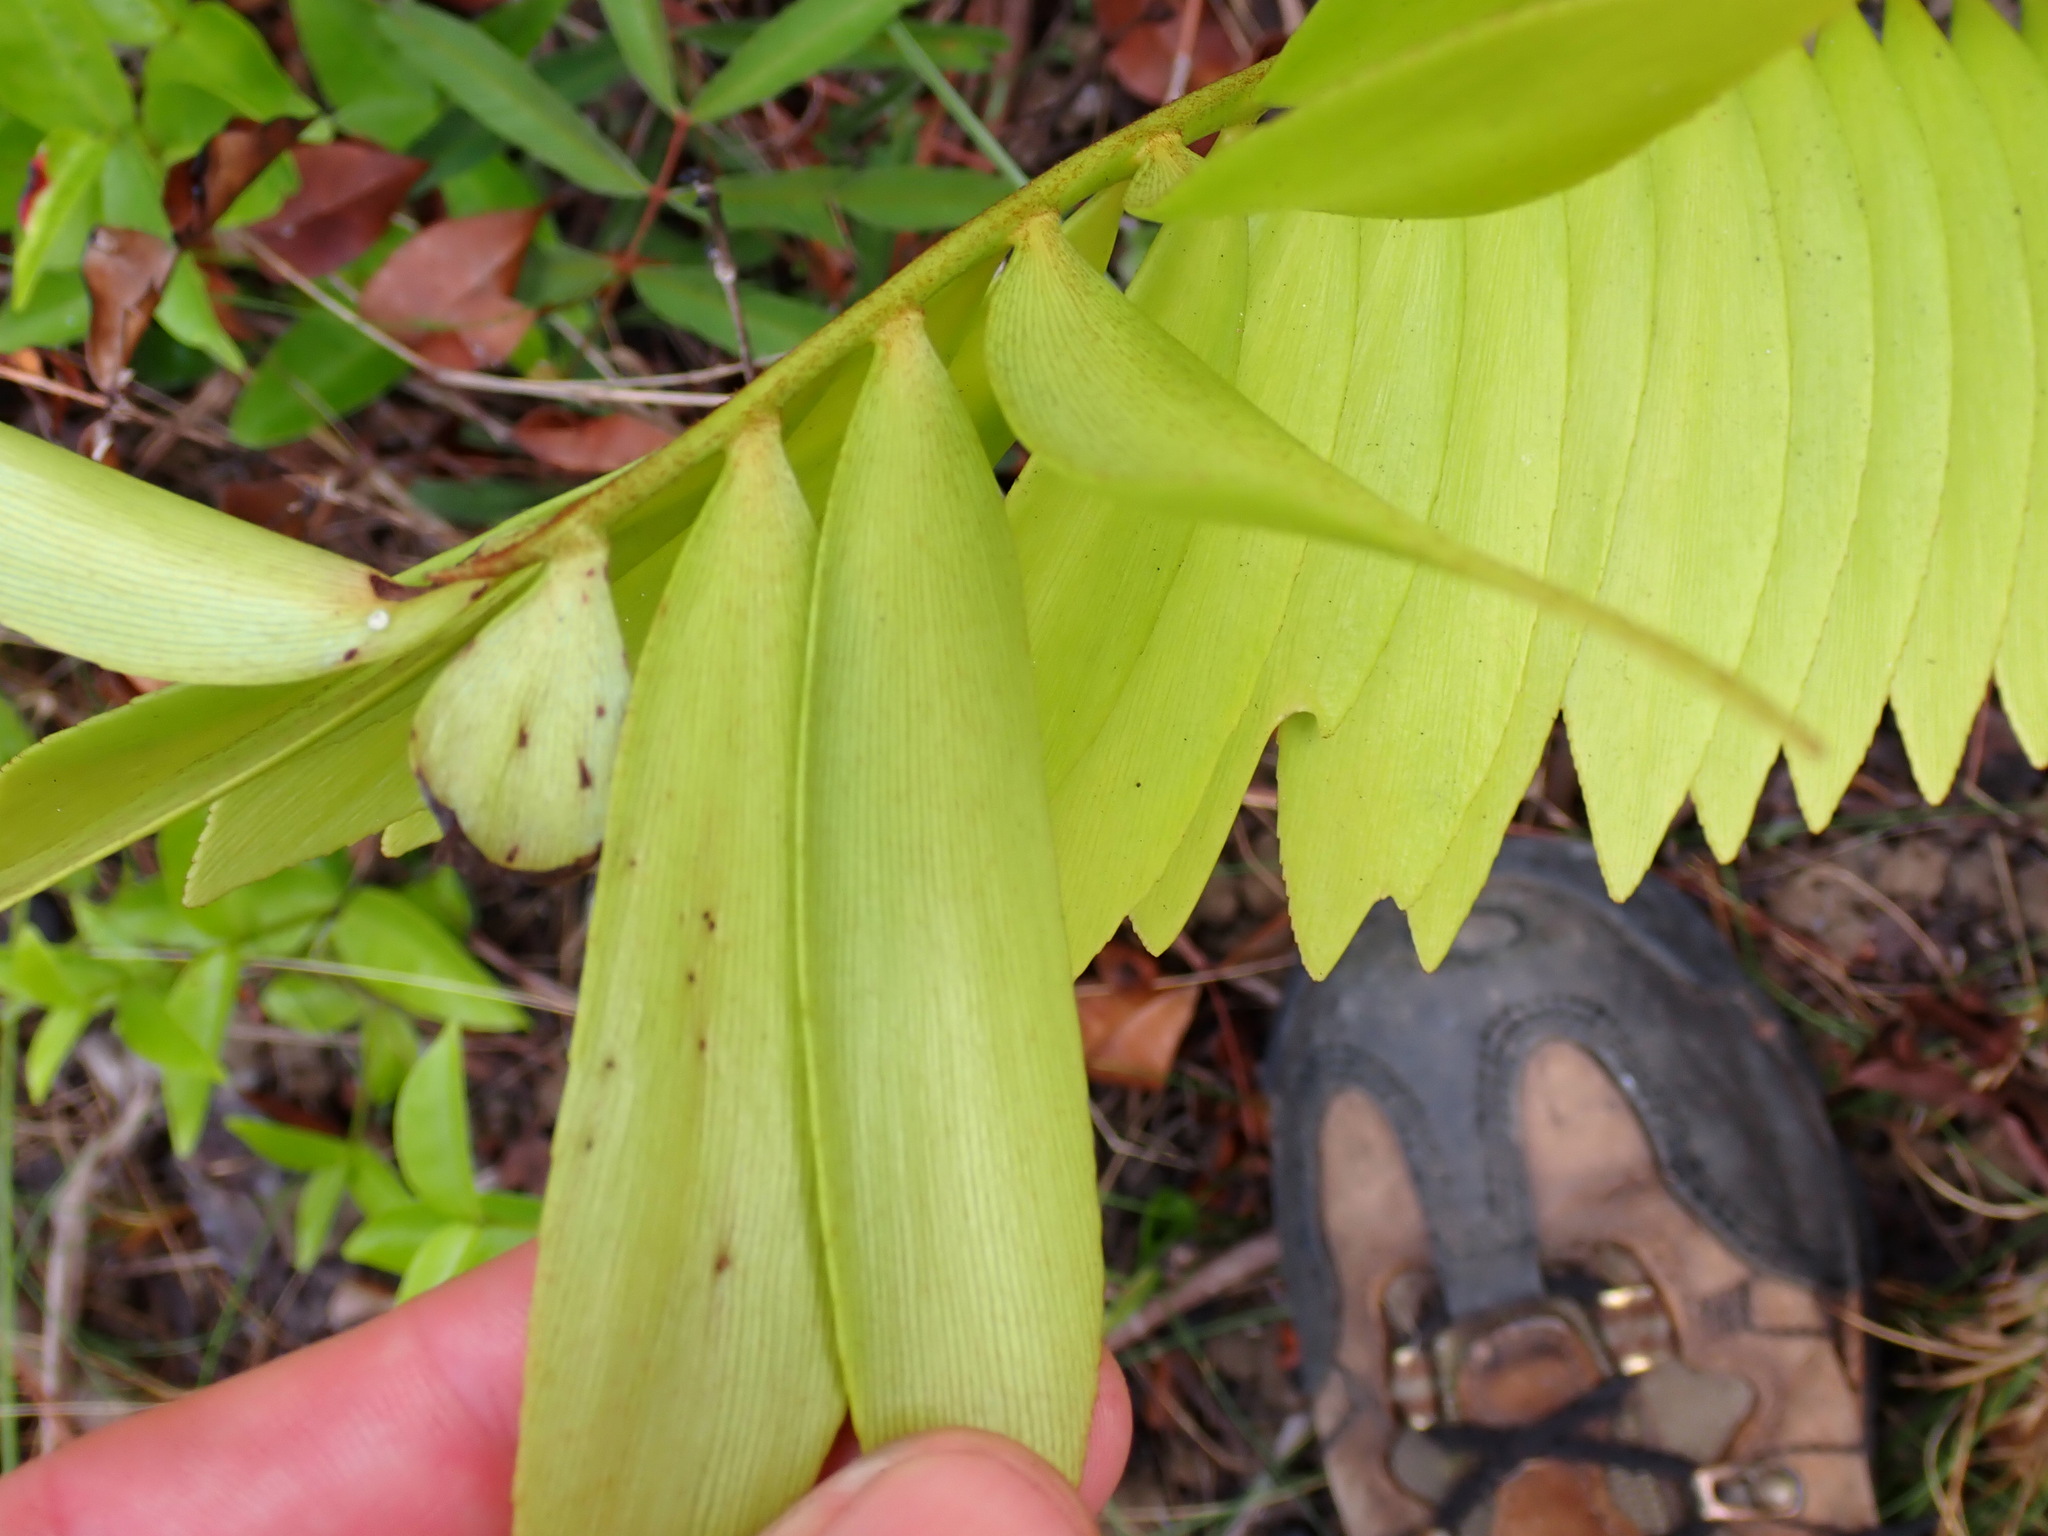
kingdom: Plantae
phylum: Tracheophyta
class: Cycadopsida
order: Cycadales
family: Zamiaceae
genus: Zamia
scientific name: Zamia prasina
